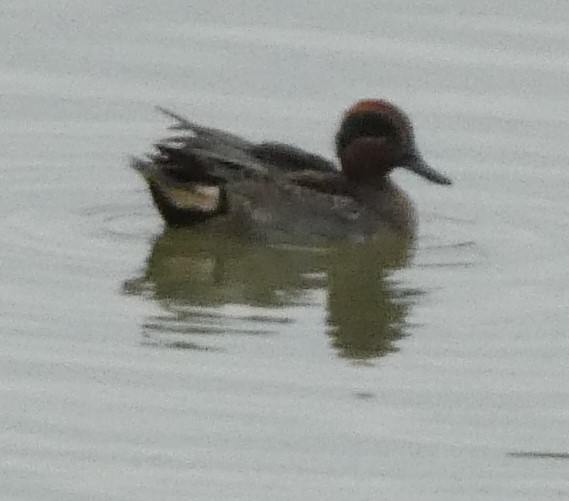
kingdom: Animalia
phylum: Chordata
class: Aves
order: Anseriformes
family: Anatidae
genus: Anas
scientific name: Anas crecca
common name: Eurasian teal
